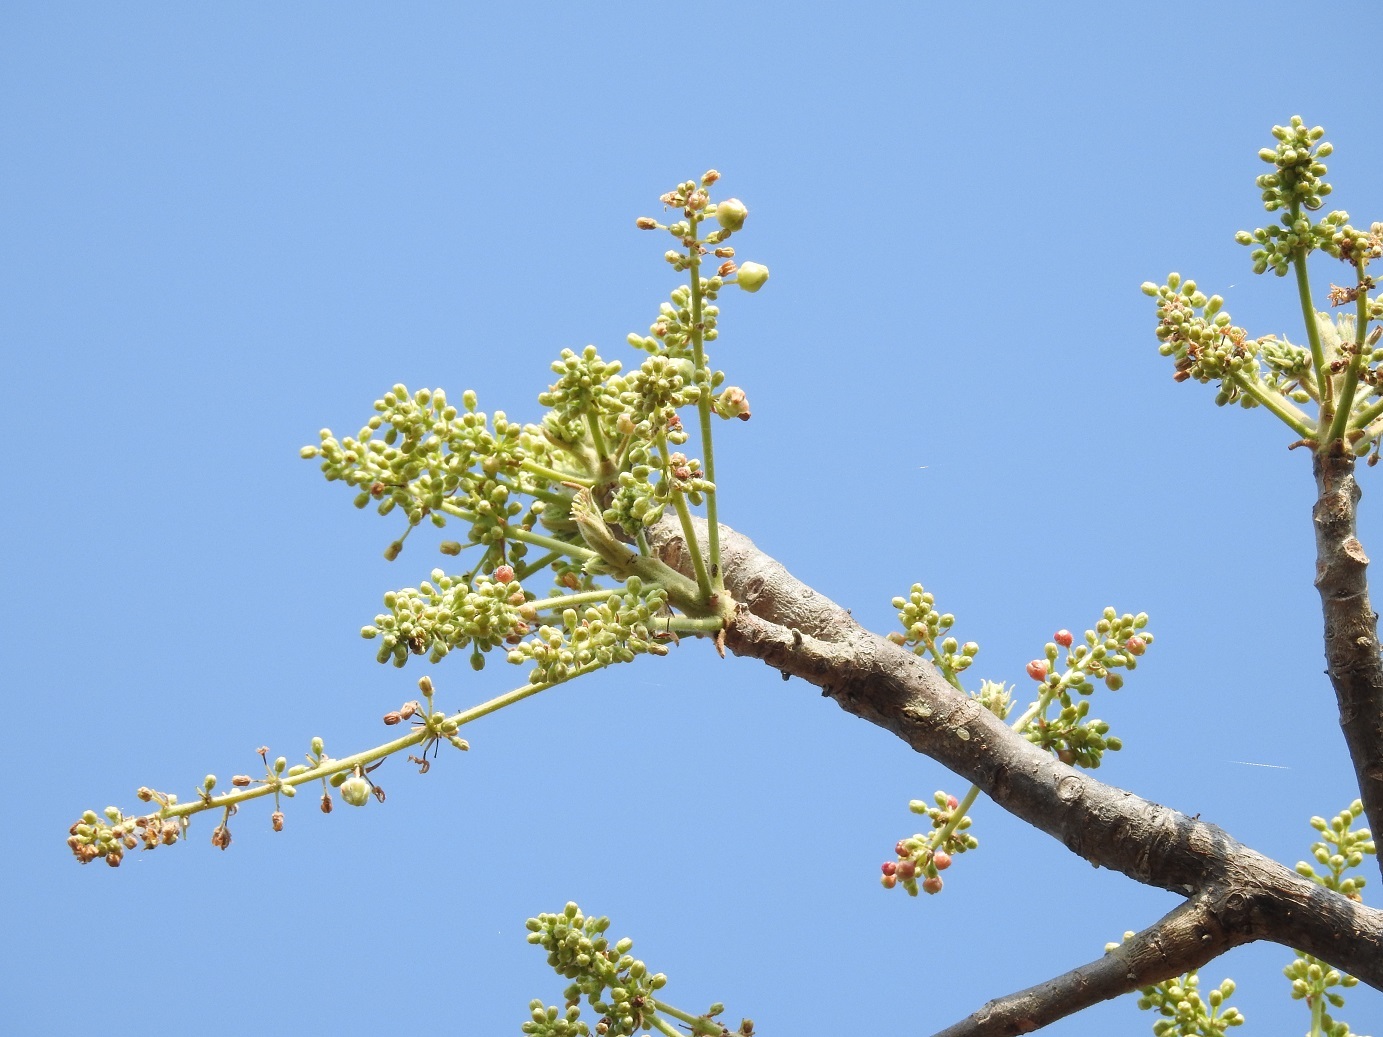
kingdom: Plantae
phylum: Tracheophyta
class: Magnoliopsida
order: Sapindales
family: Burseraceae
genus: Bursera
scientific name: Bursera simaruba
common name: Turpentine tree
